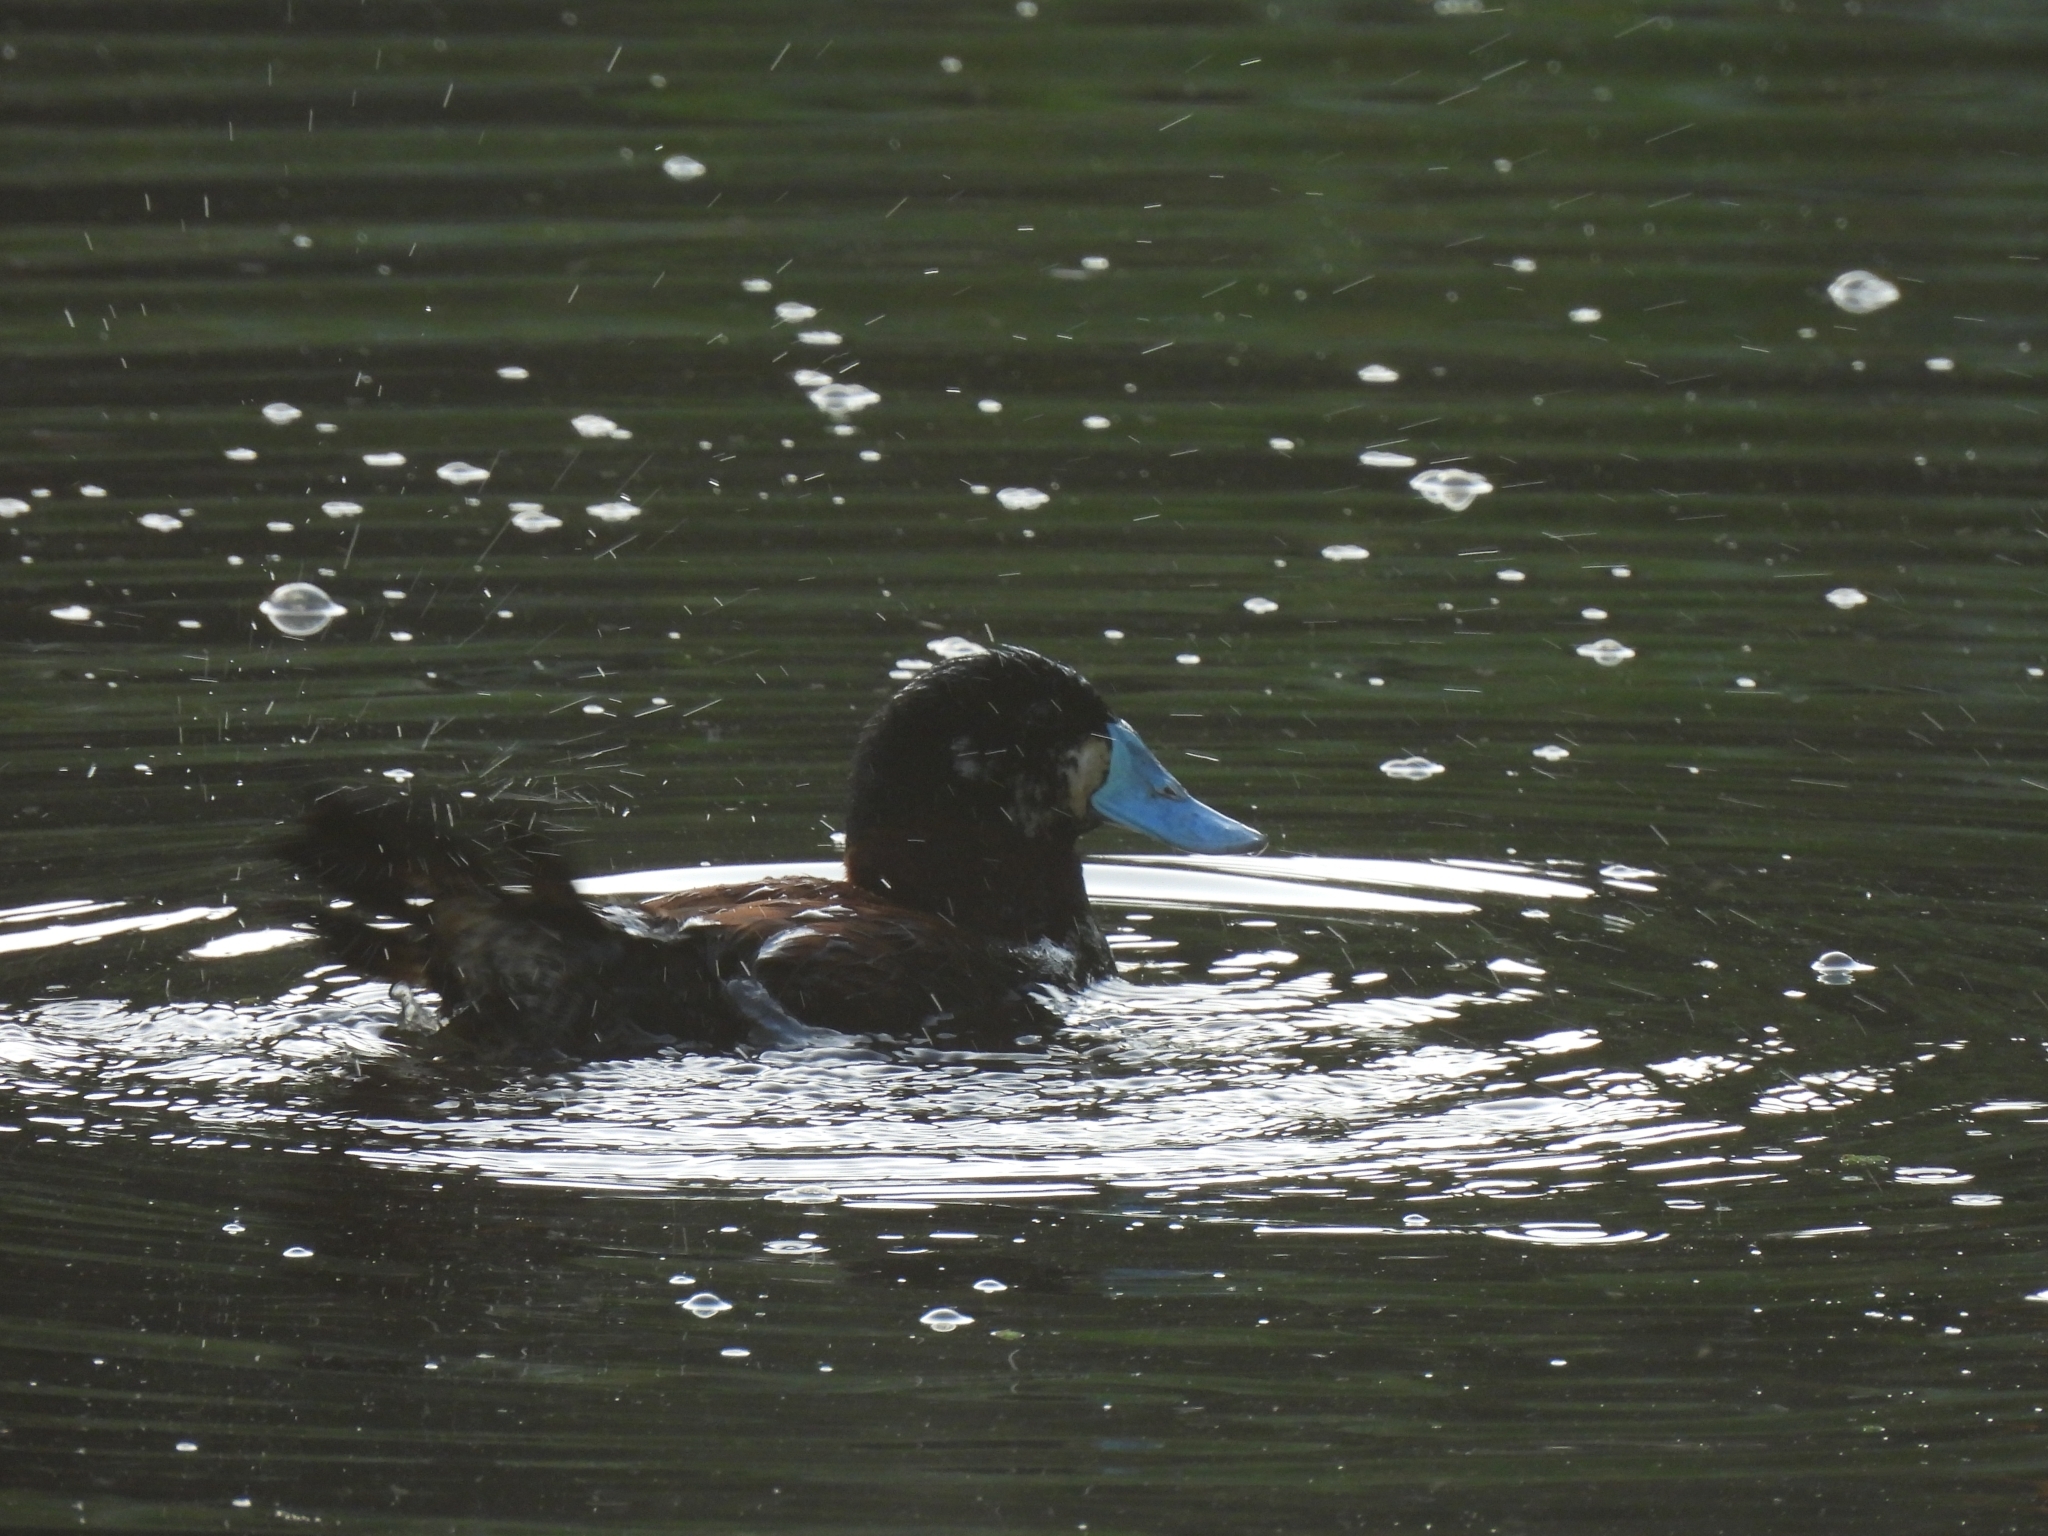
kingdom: Animalia
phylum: Chordata
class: Aves
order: Anseriformes
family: Anatidae
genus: Oxyura
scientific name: Oxyura ferruginea
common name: Andean duck
